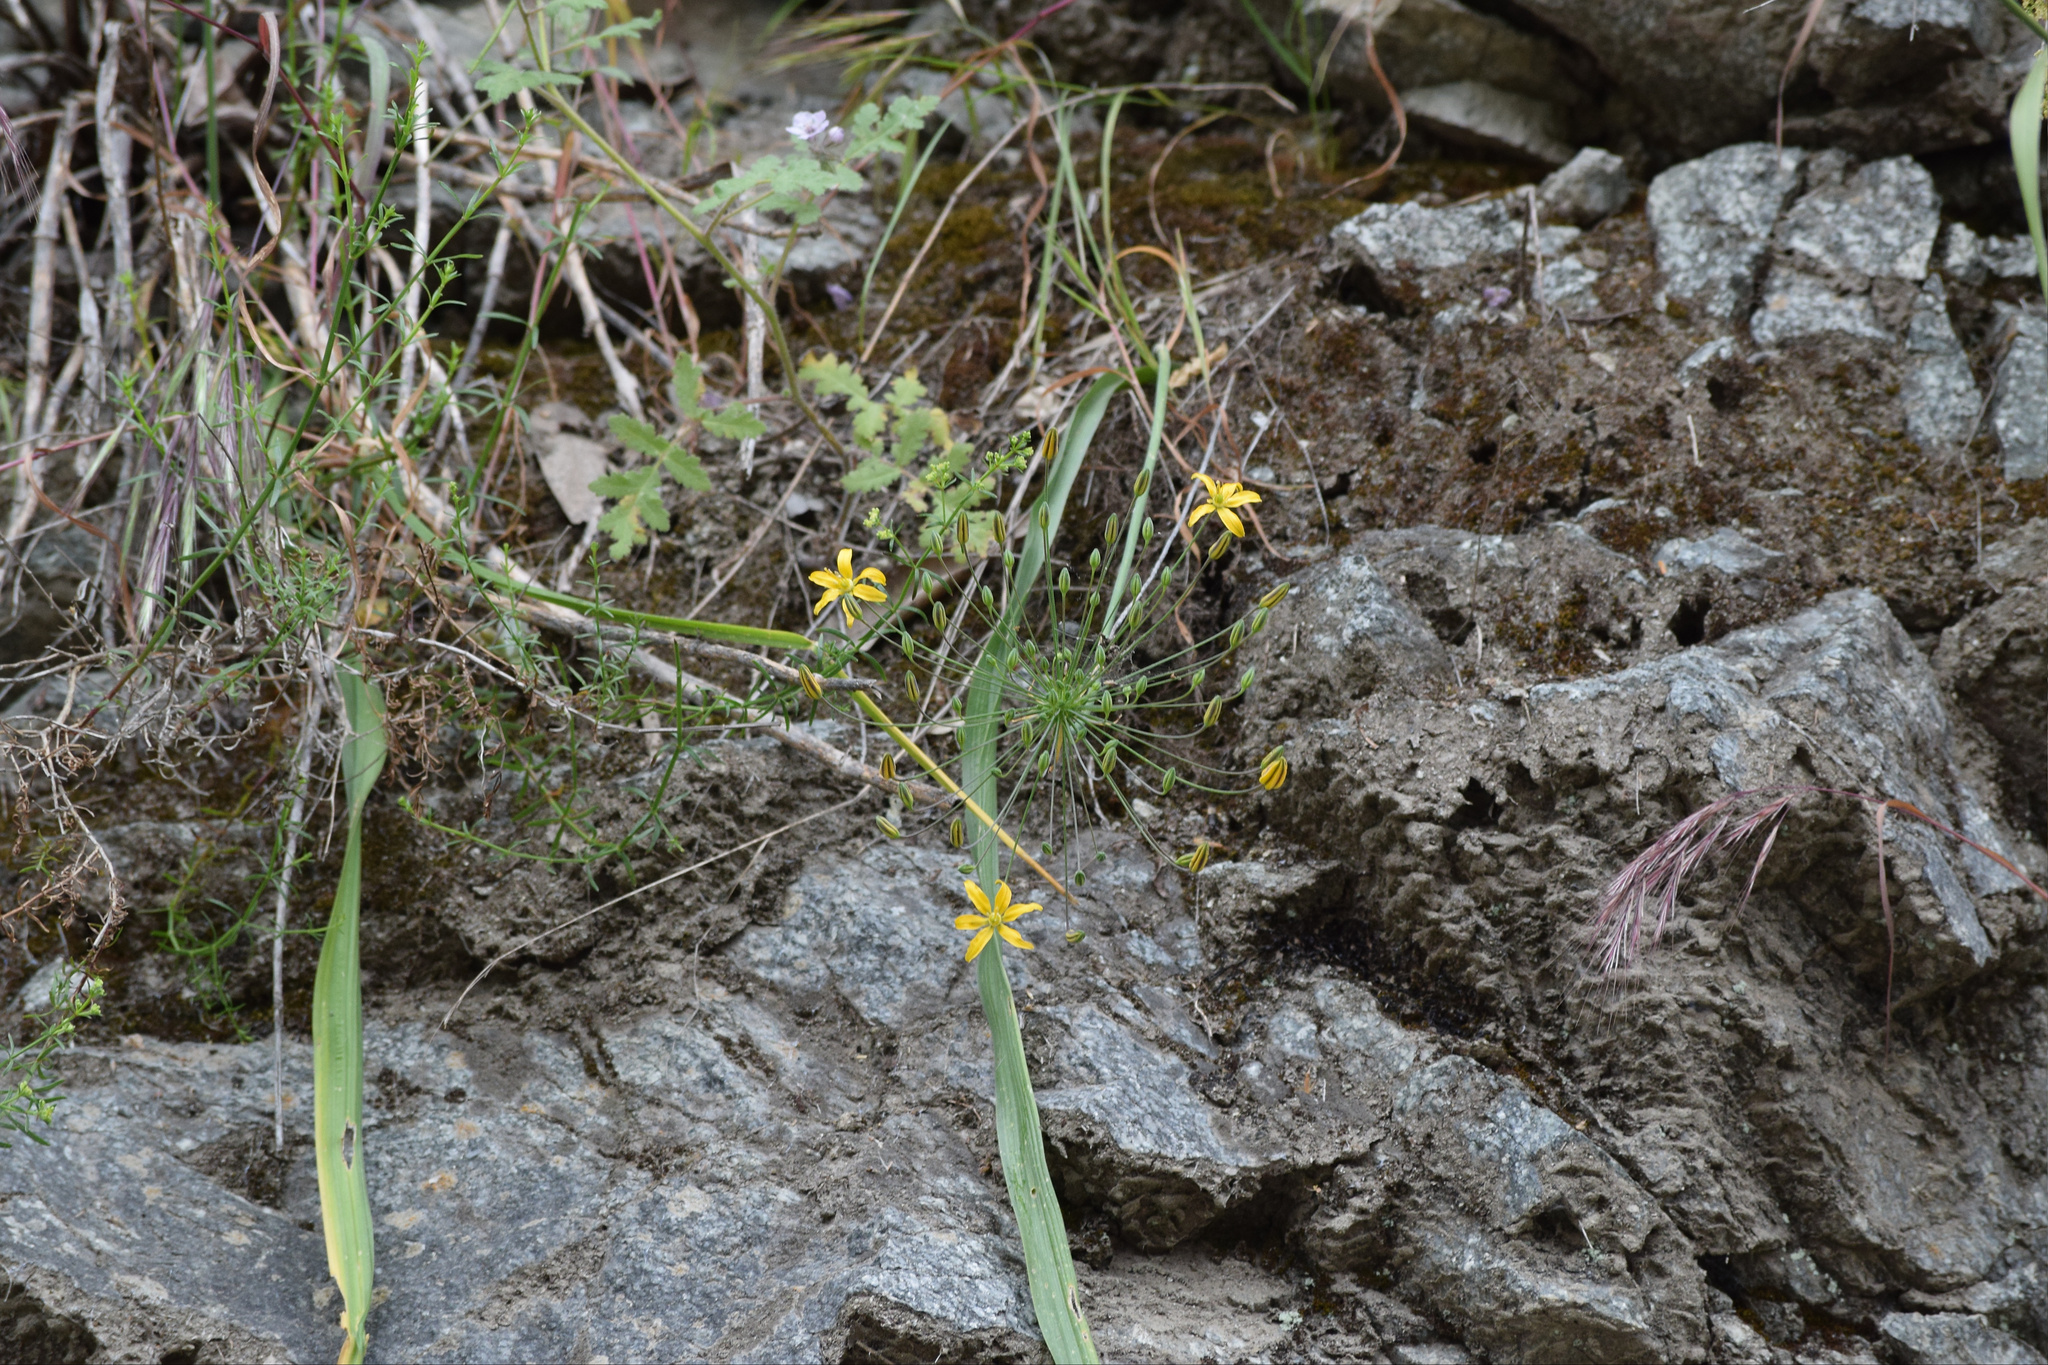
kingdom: Plantae
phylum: Tracheophyta
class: Liliopsida
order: Asparagales
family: Asparagaceae
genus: Bloomeria
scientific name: Bloomeria crocea
